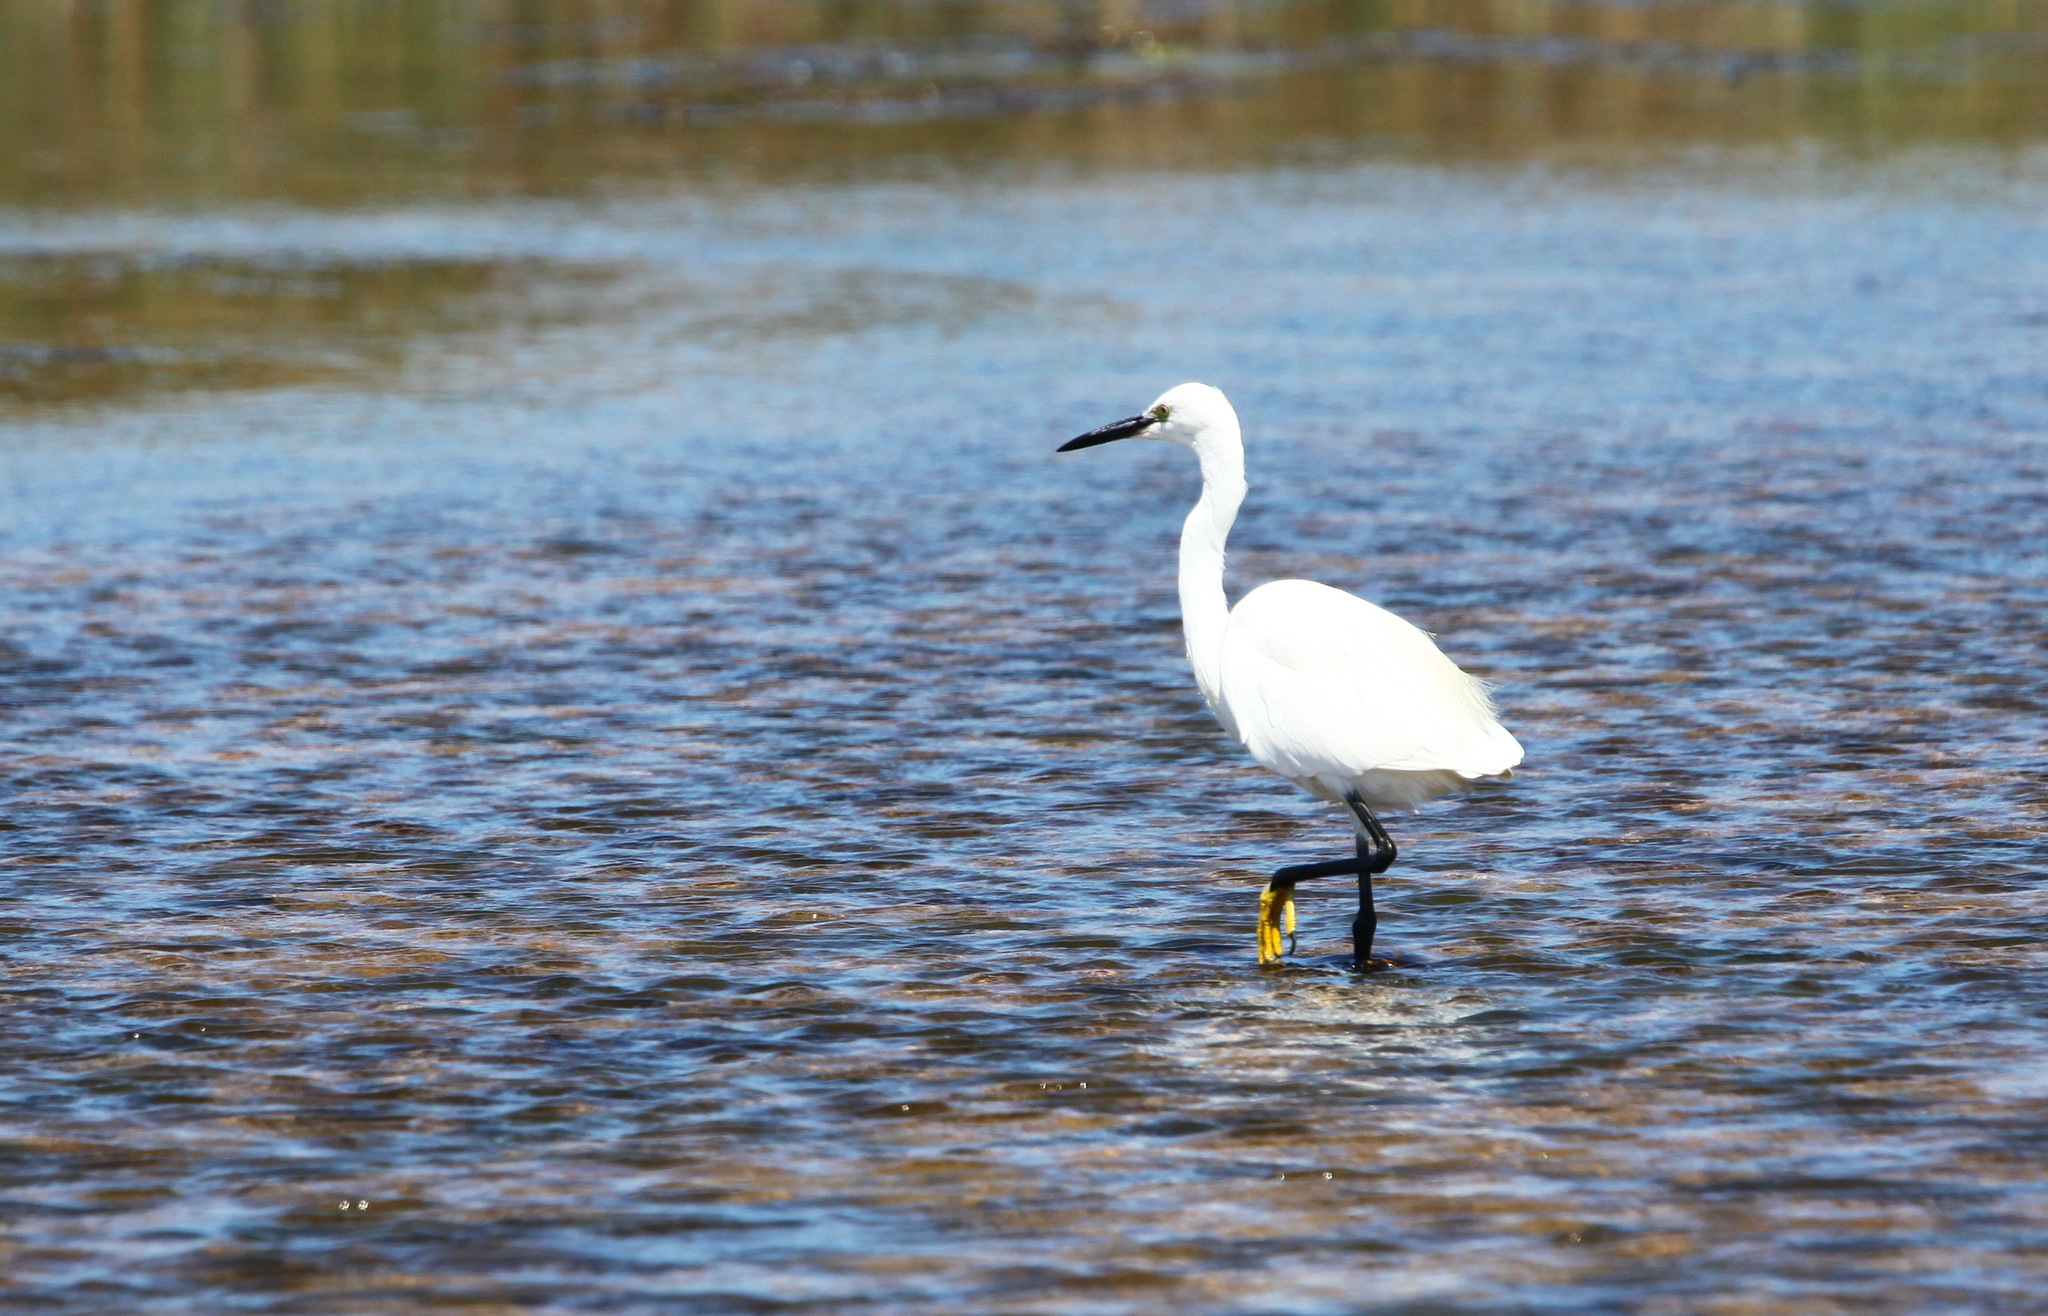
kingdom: Animalia
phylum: Chordata
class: Aves
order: Pelecaniformes
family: Ardeidae
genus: Egretta
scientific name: Egretta garzetta
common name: Little egret
